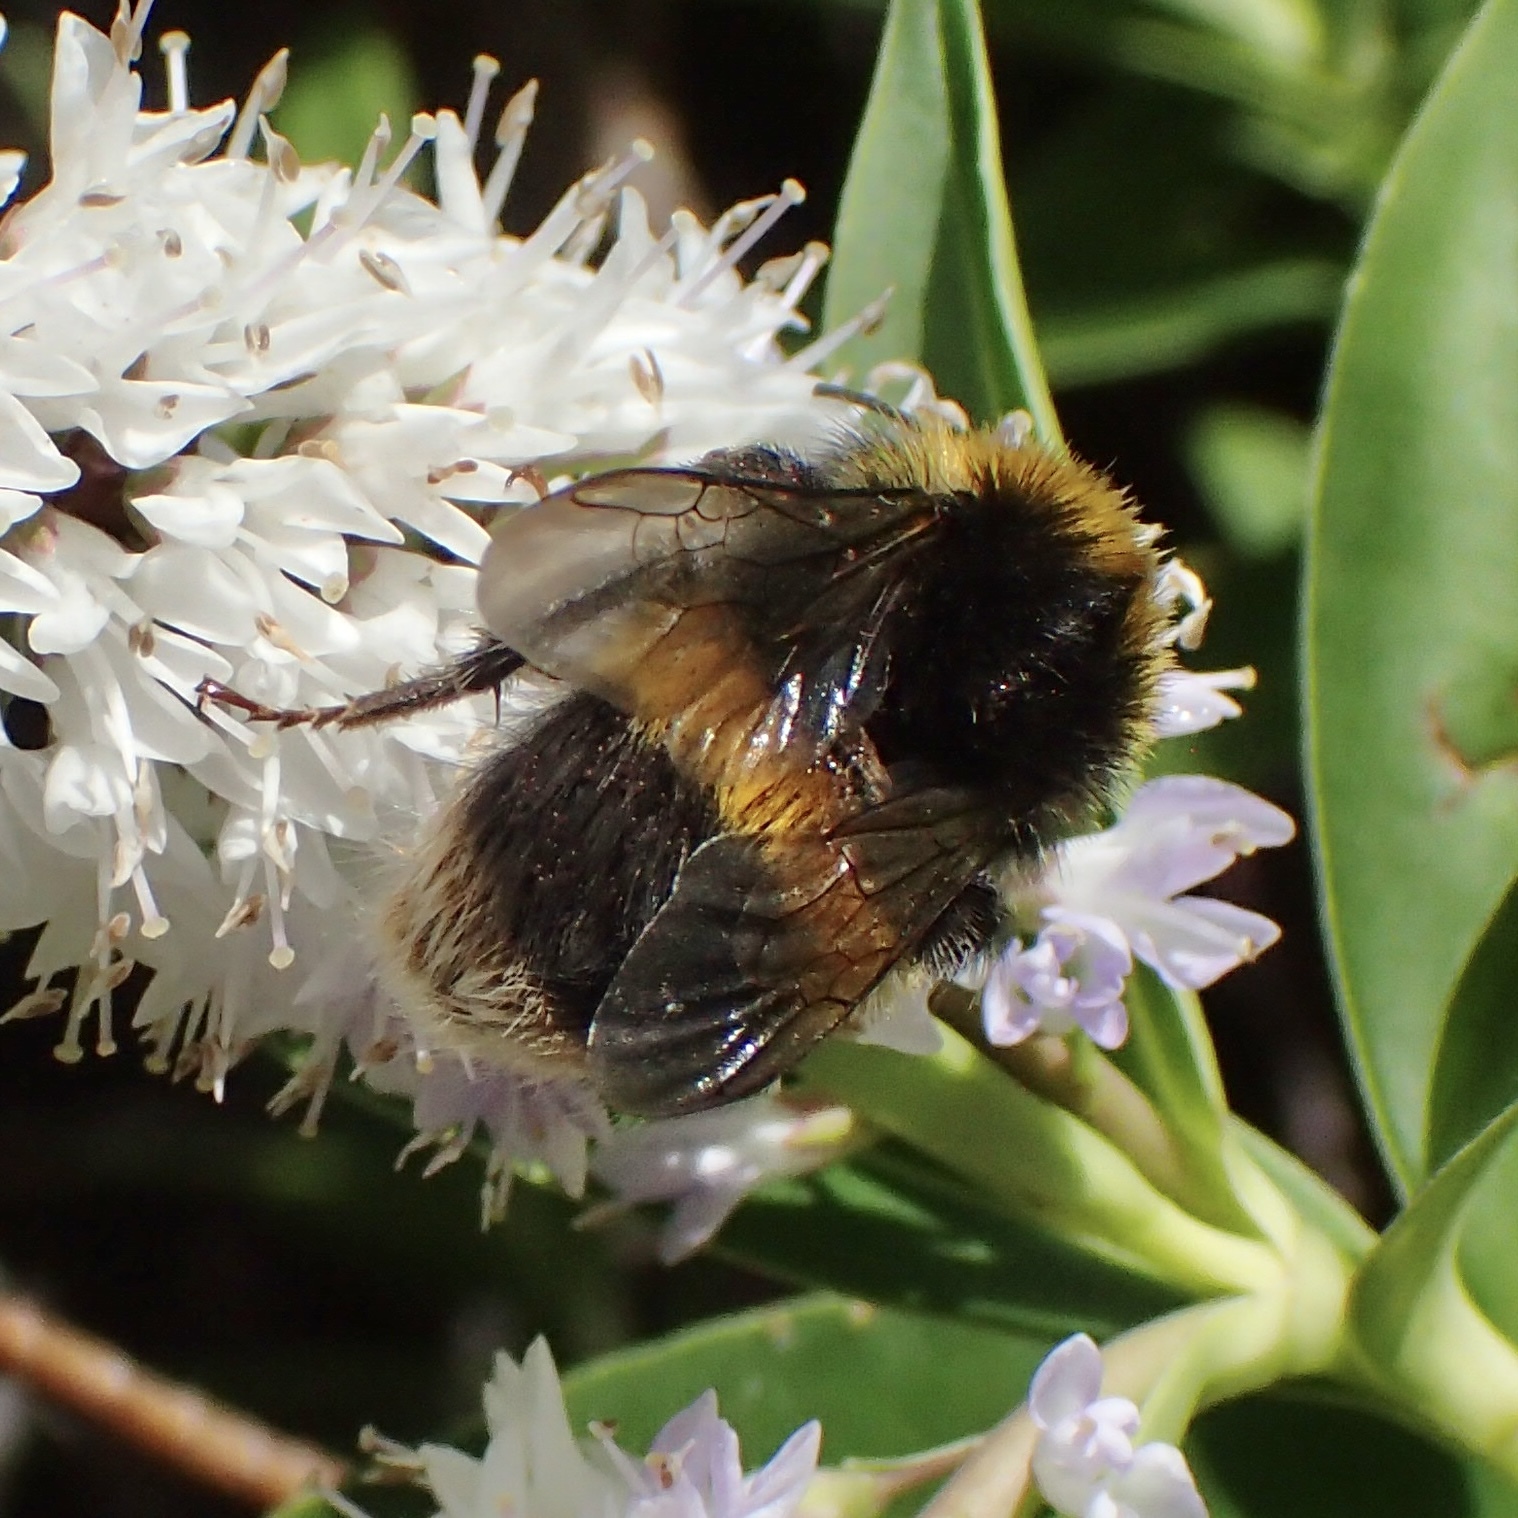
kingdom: Animalia
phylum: Arthropoda
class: Insecta
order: Hymenoptera
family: Apidae
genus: Bombus
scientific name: Bombus terrestris
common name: Buff-tailed bumblebee
